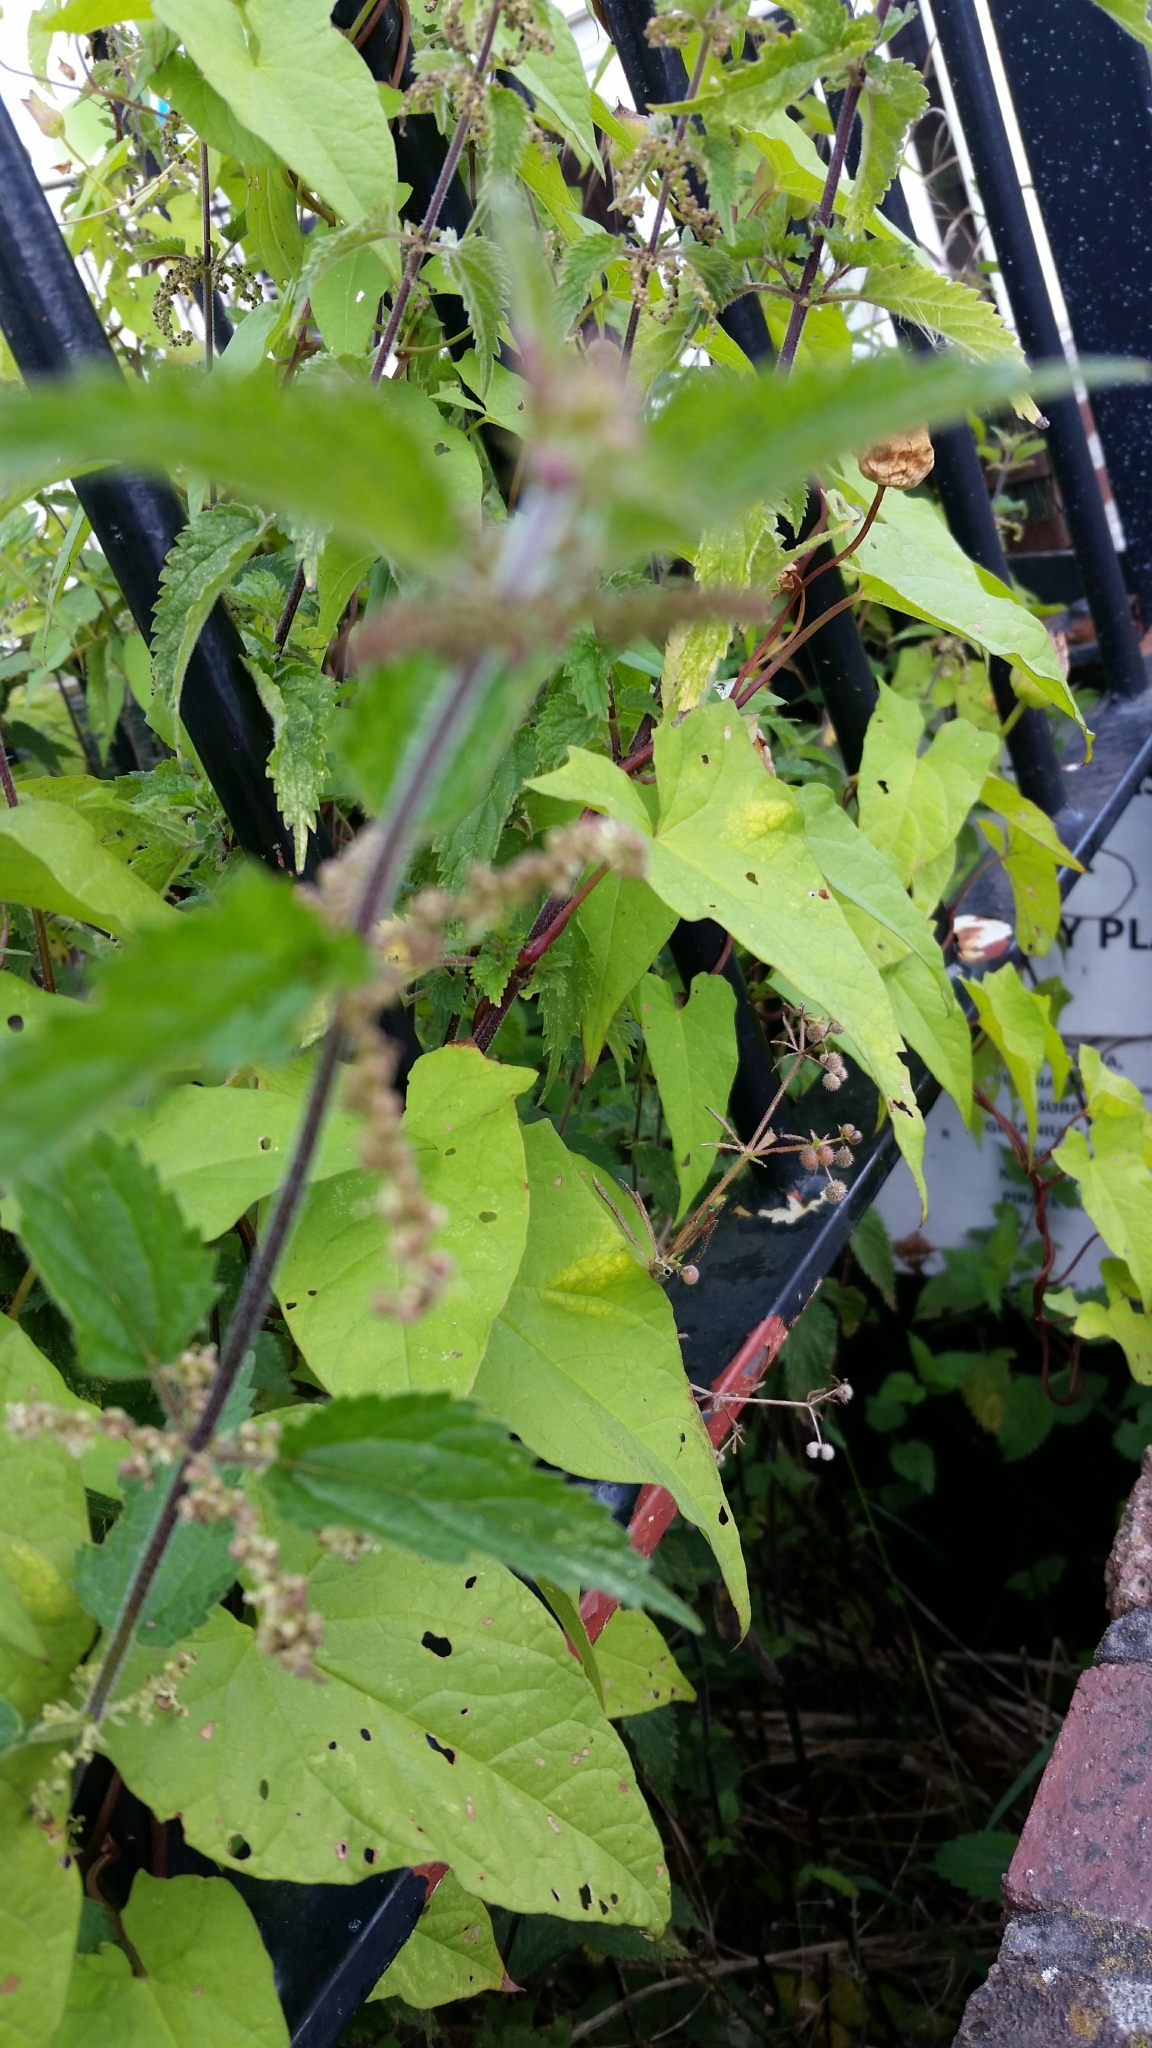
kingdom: Plantae
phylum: Tracheophyta
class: Magnoliopsida
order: Rosales
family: Urticaceae
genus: Urtica
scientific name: Urtica dioica
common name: Common nettle
